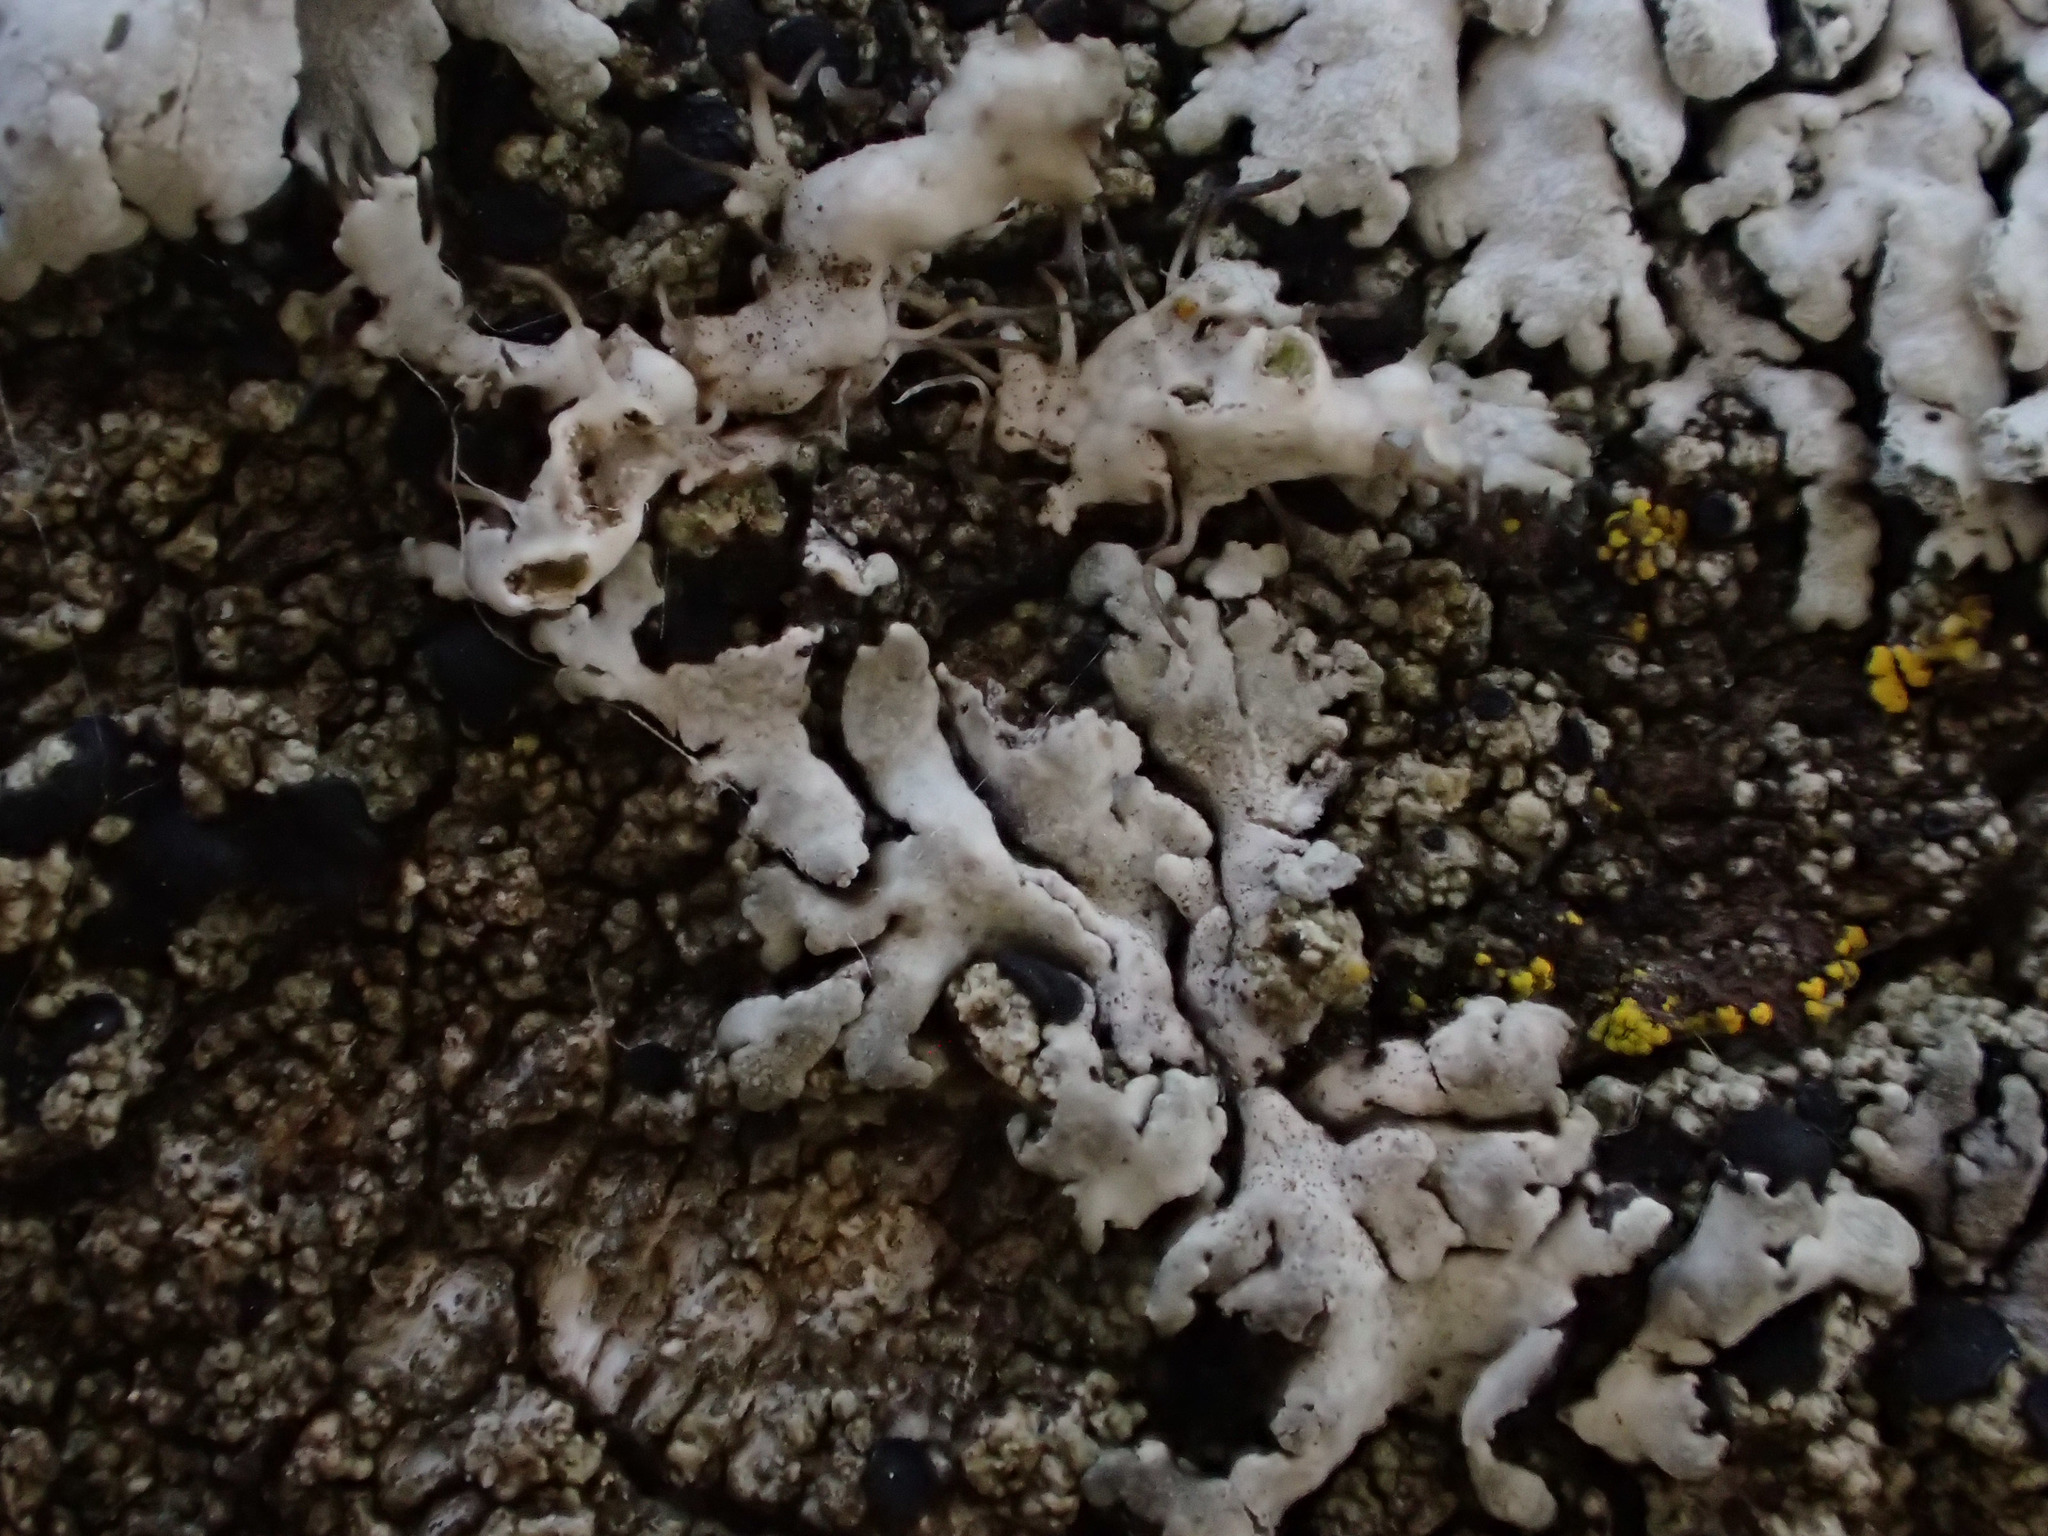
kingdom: Fungi
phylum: Ascomycota
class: Lecanoromycetes
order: Caliciales
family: Physciaceae
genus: Physcia
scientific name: Physcia adscendens
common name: Hooded rosette lichen
